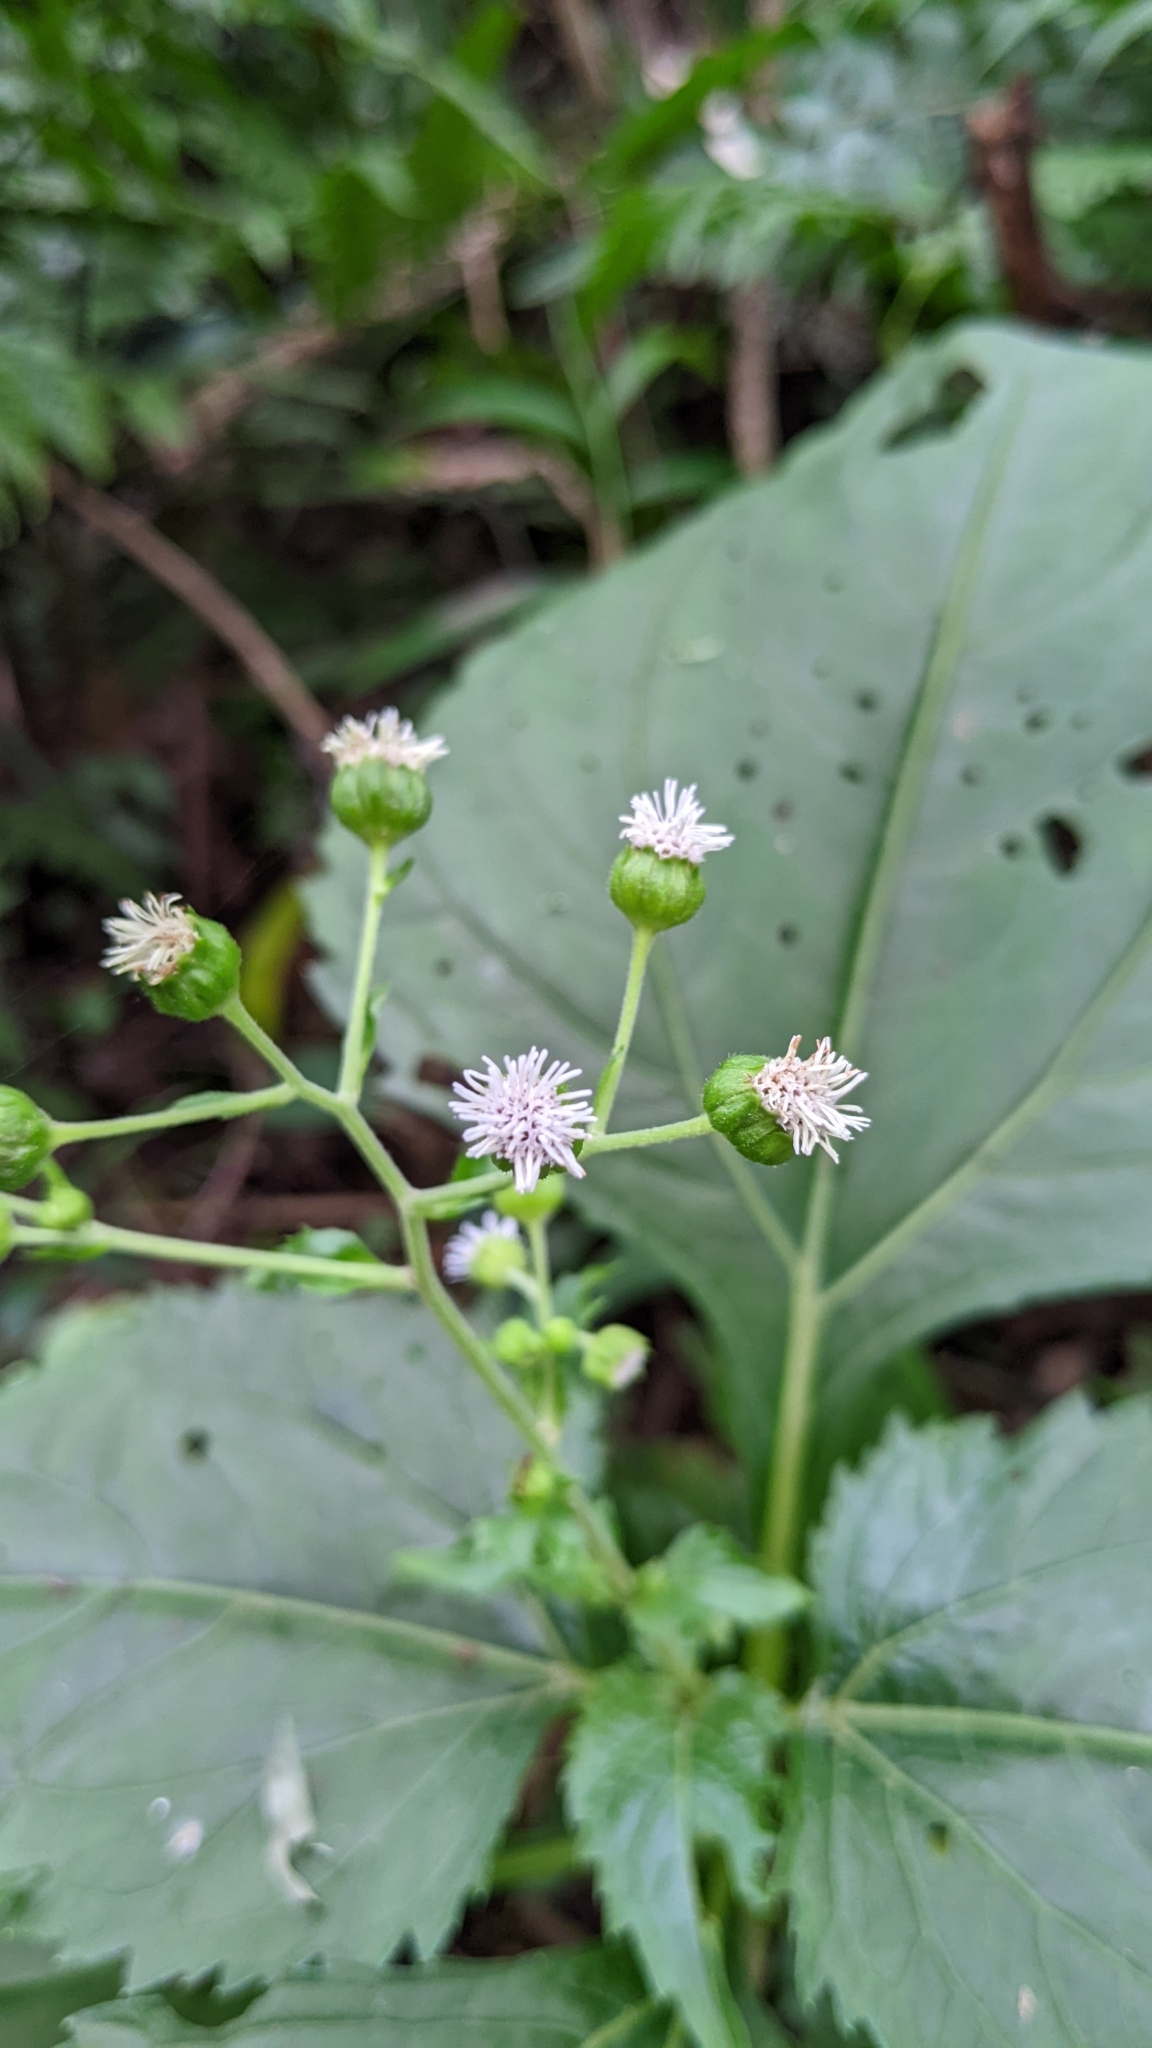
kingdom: Plantae
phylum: Tracheophyta
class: Magnoliopsida
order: Asterales
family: Asteraceae
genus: Adenostemma
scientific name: Adenostemma lavenia
